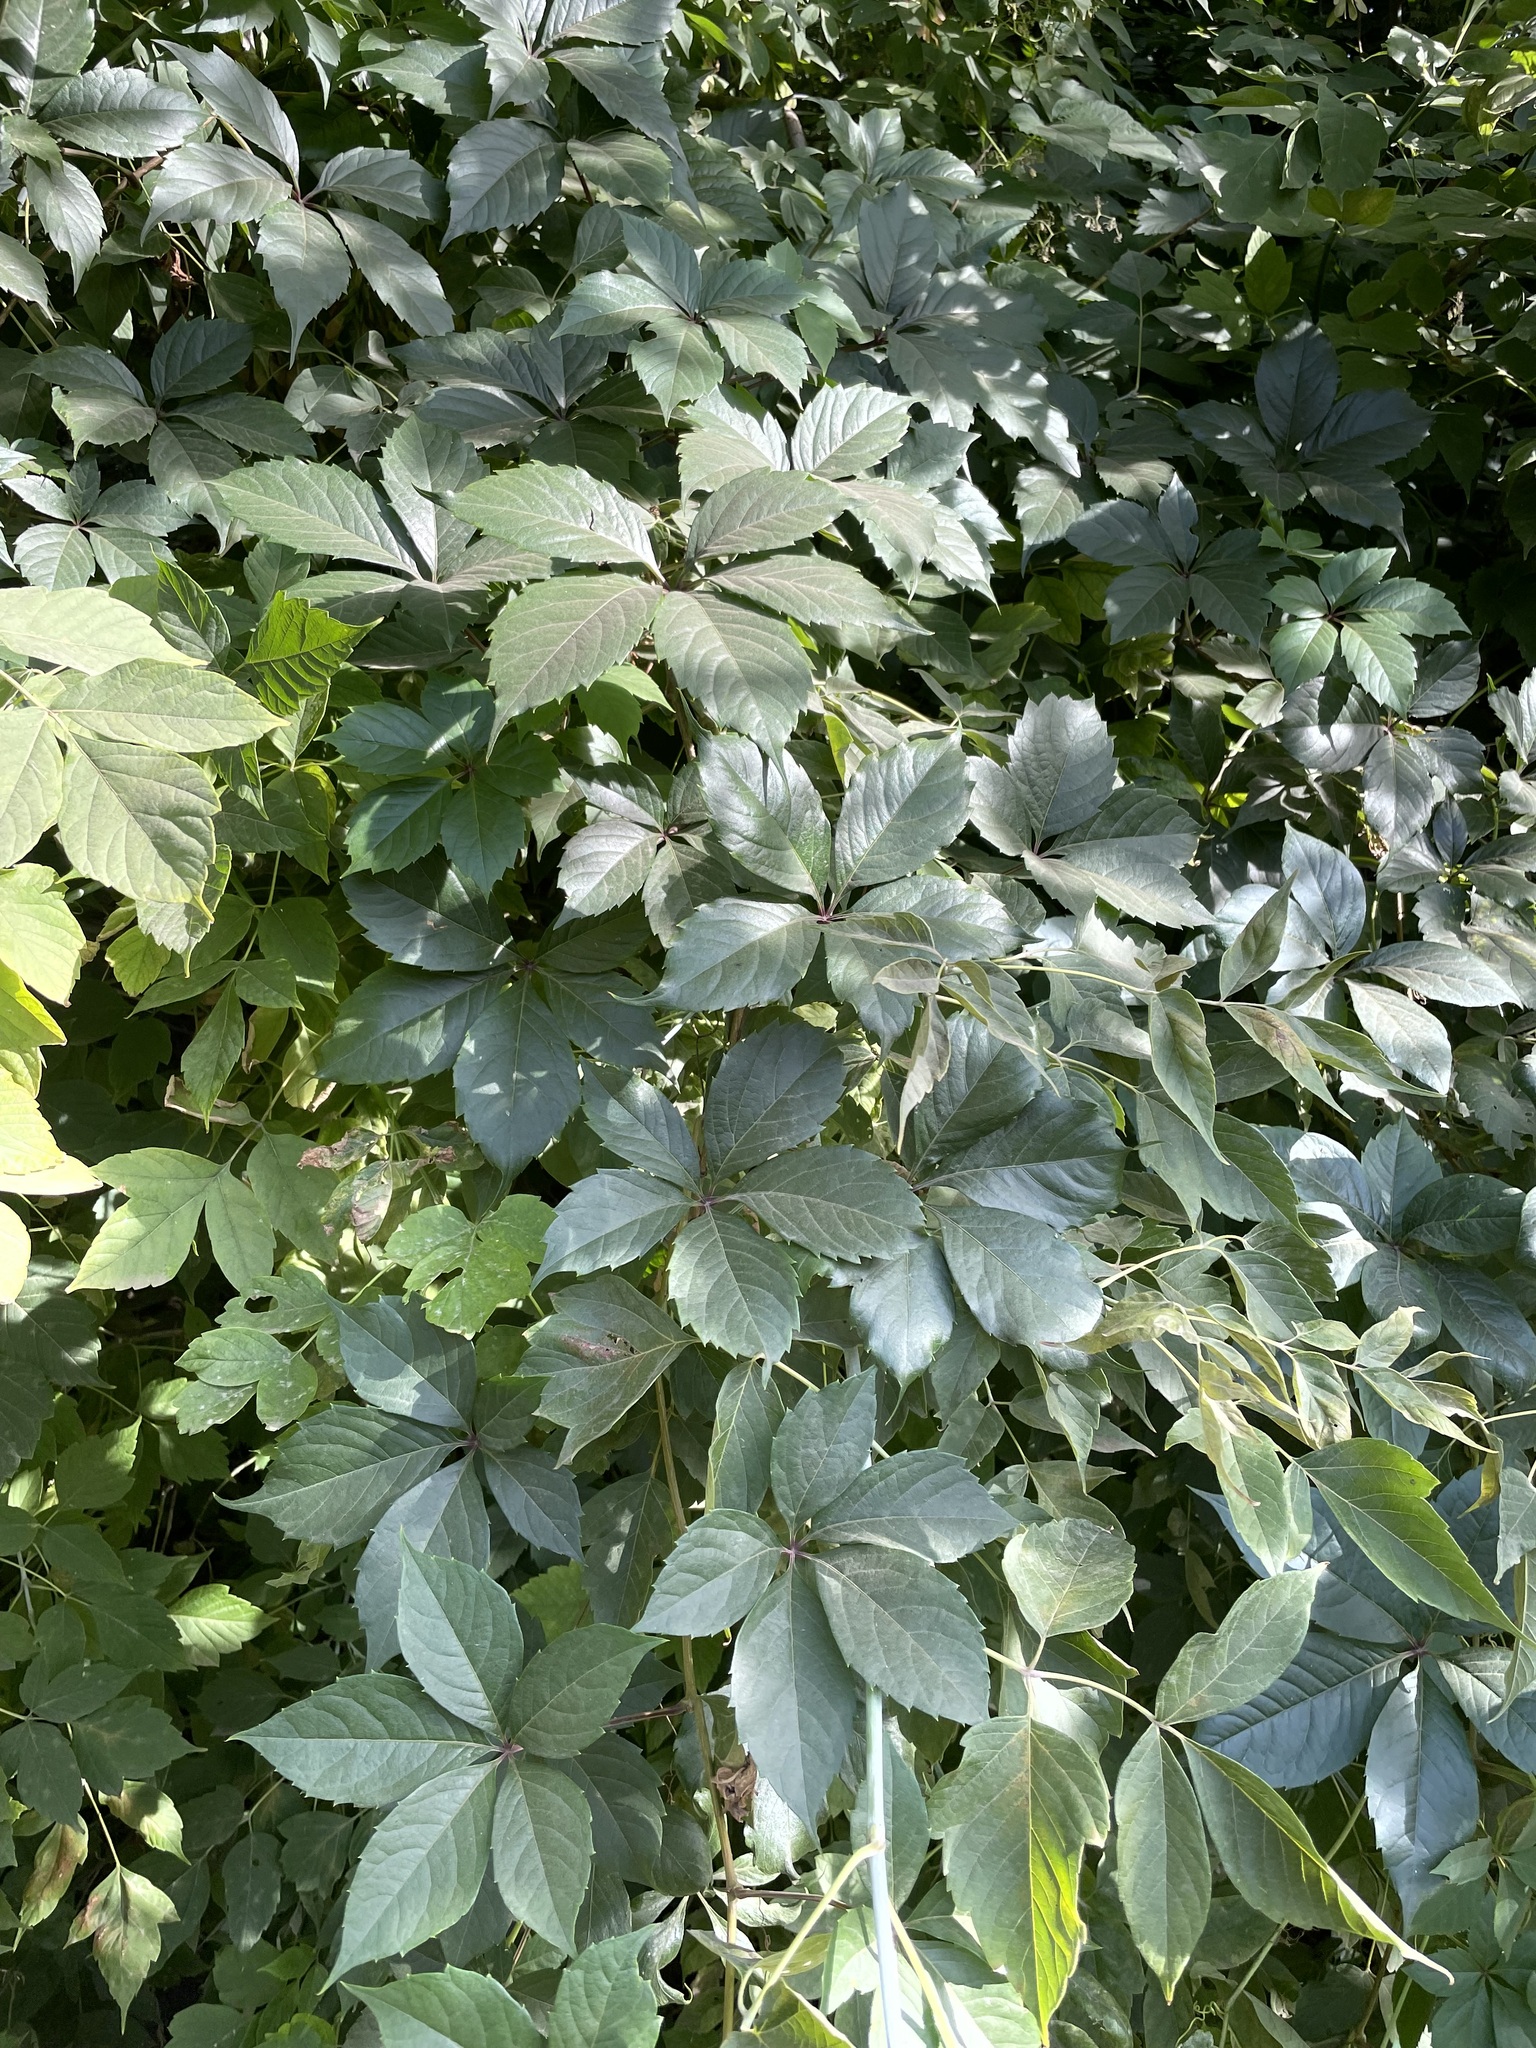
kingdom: Plantae
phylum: Tracheophyta
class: Magnoliopsida
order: Vitales
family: Vitaceae
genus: Parthenocissus
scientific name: Parthenocissus inserta
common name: False virginia-creeper
